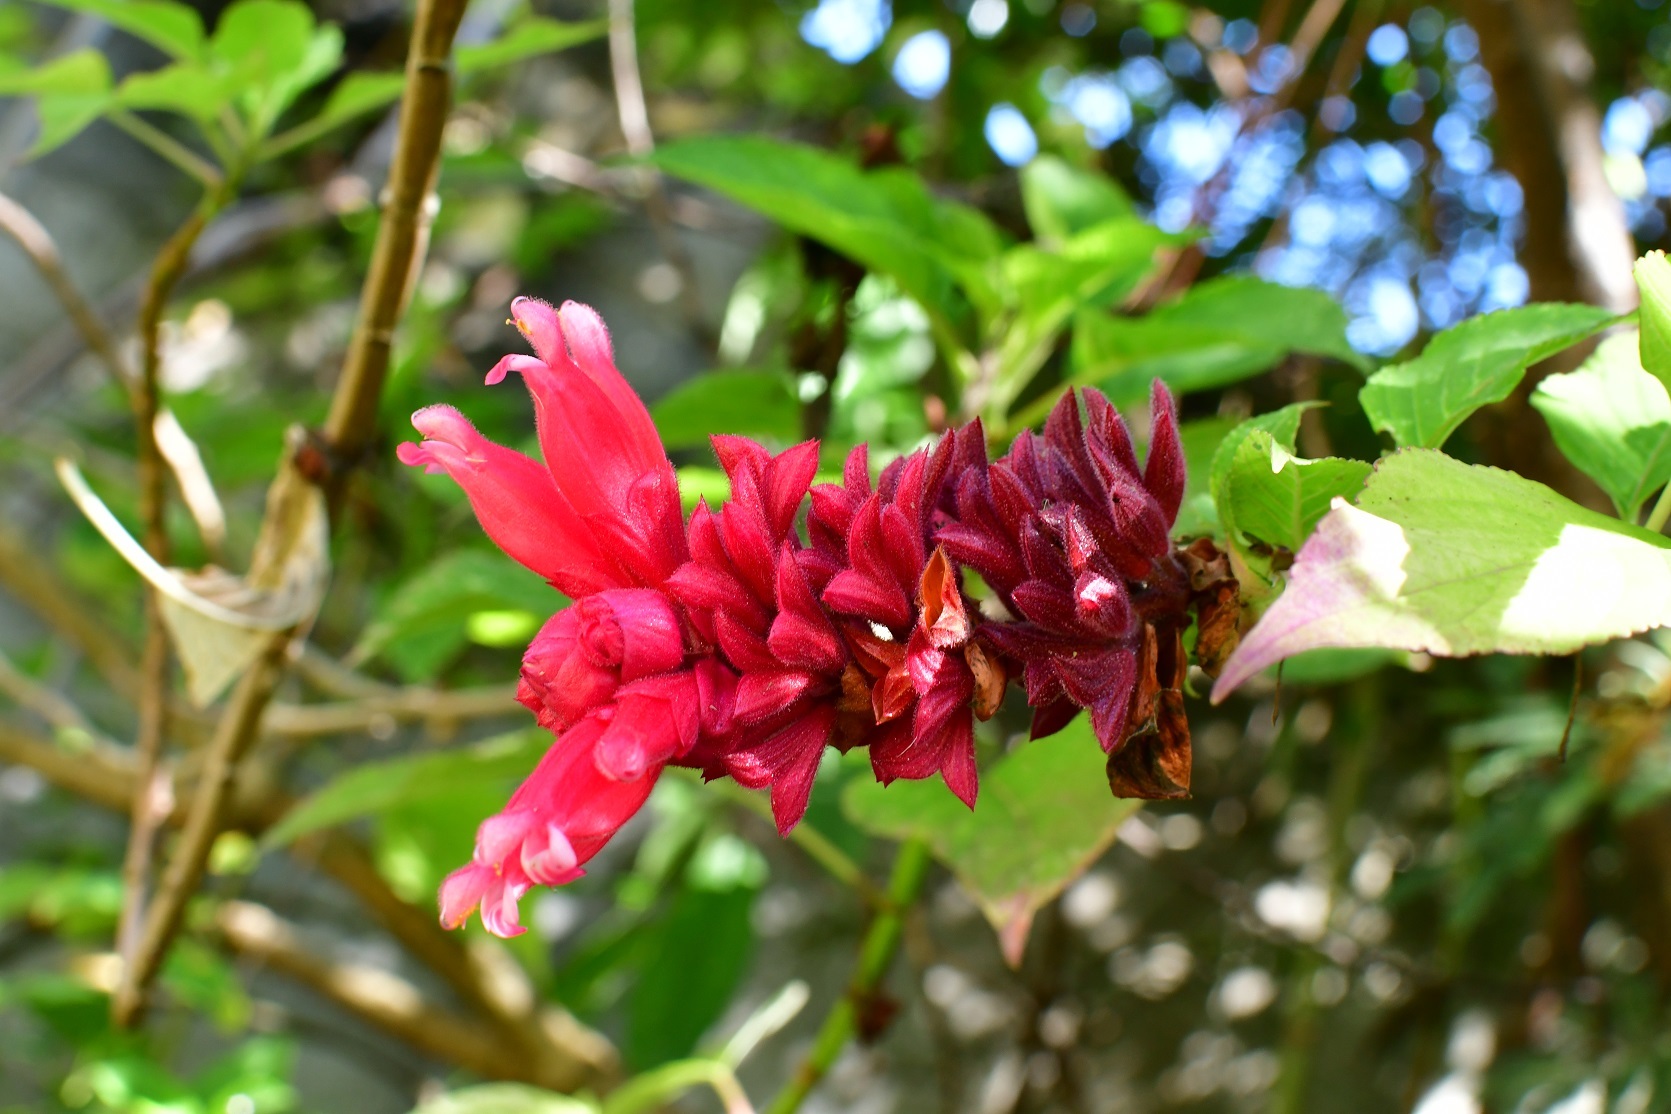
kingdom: Plantae
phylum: Tracheophyta
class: Magnoliopsida
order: Lamiales
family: Lamiaceae
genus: Salvia
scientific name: Salvia wagneriana
